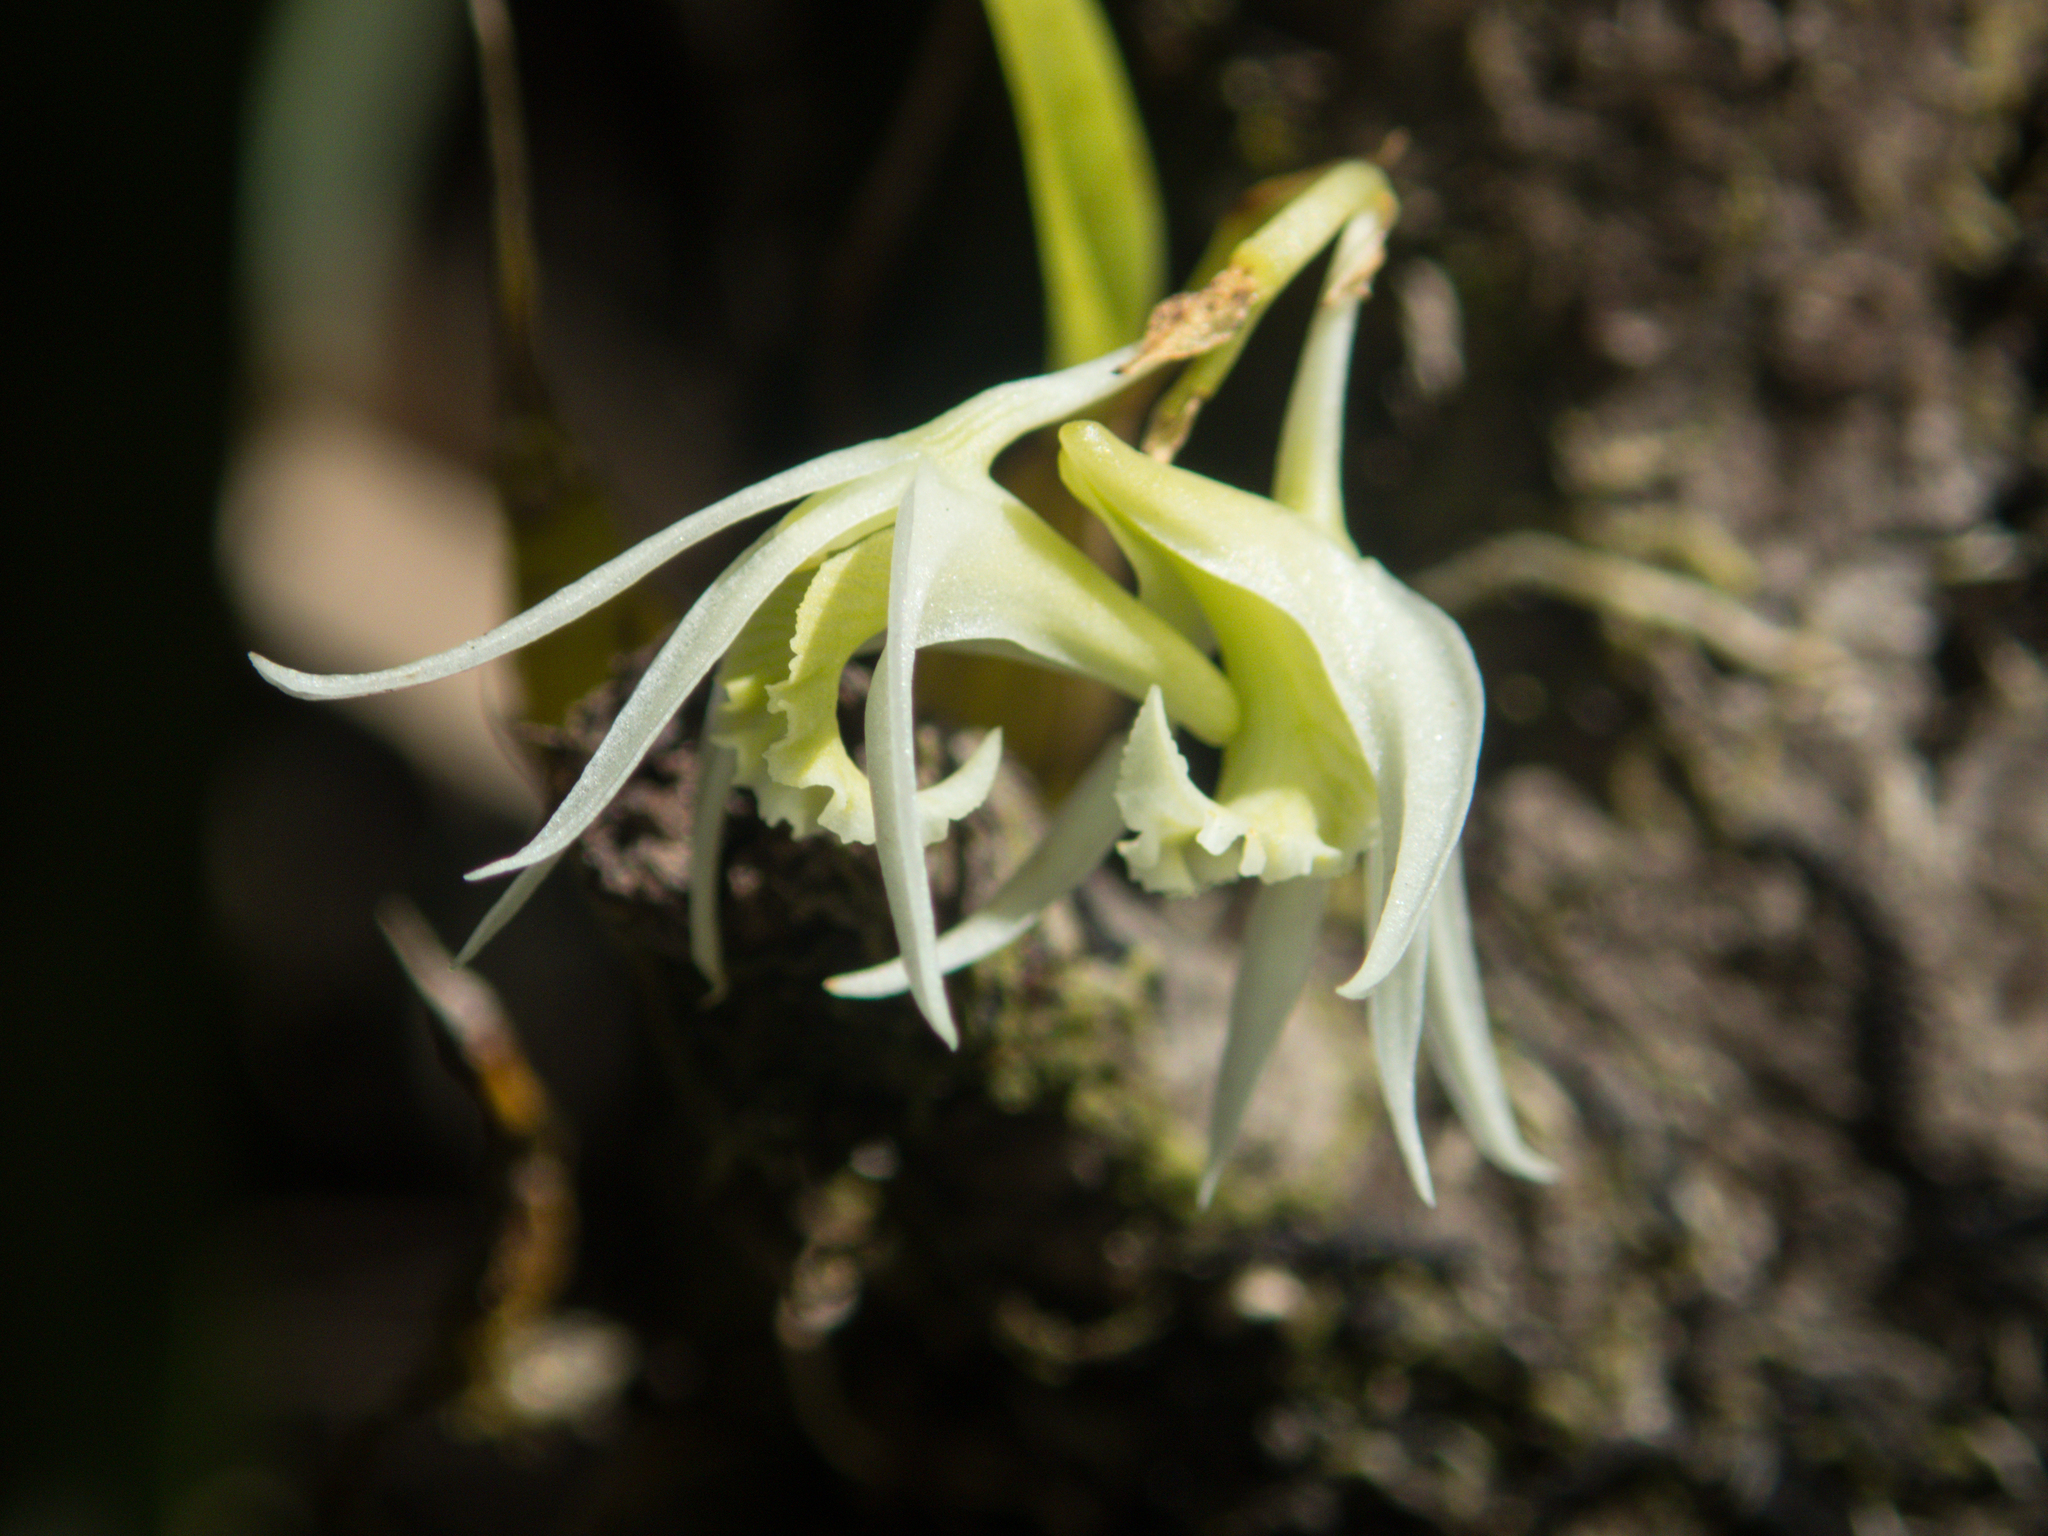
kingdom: Plantae
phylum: Tracheophyta
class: Liliopsida
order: Asparagales
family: Orchidaceae
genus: Dendrobium
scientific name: Dendrobium kratense
